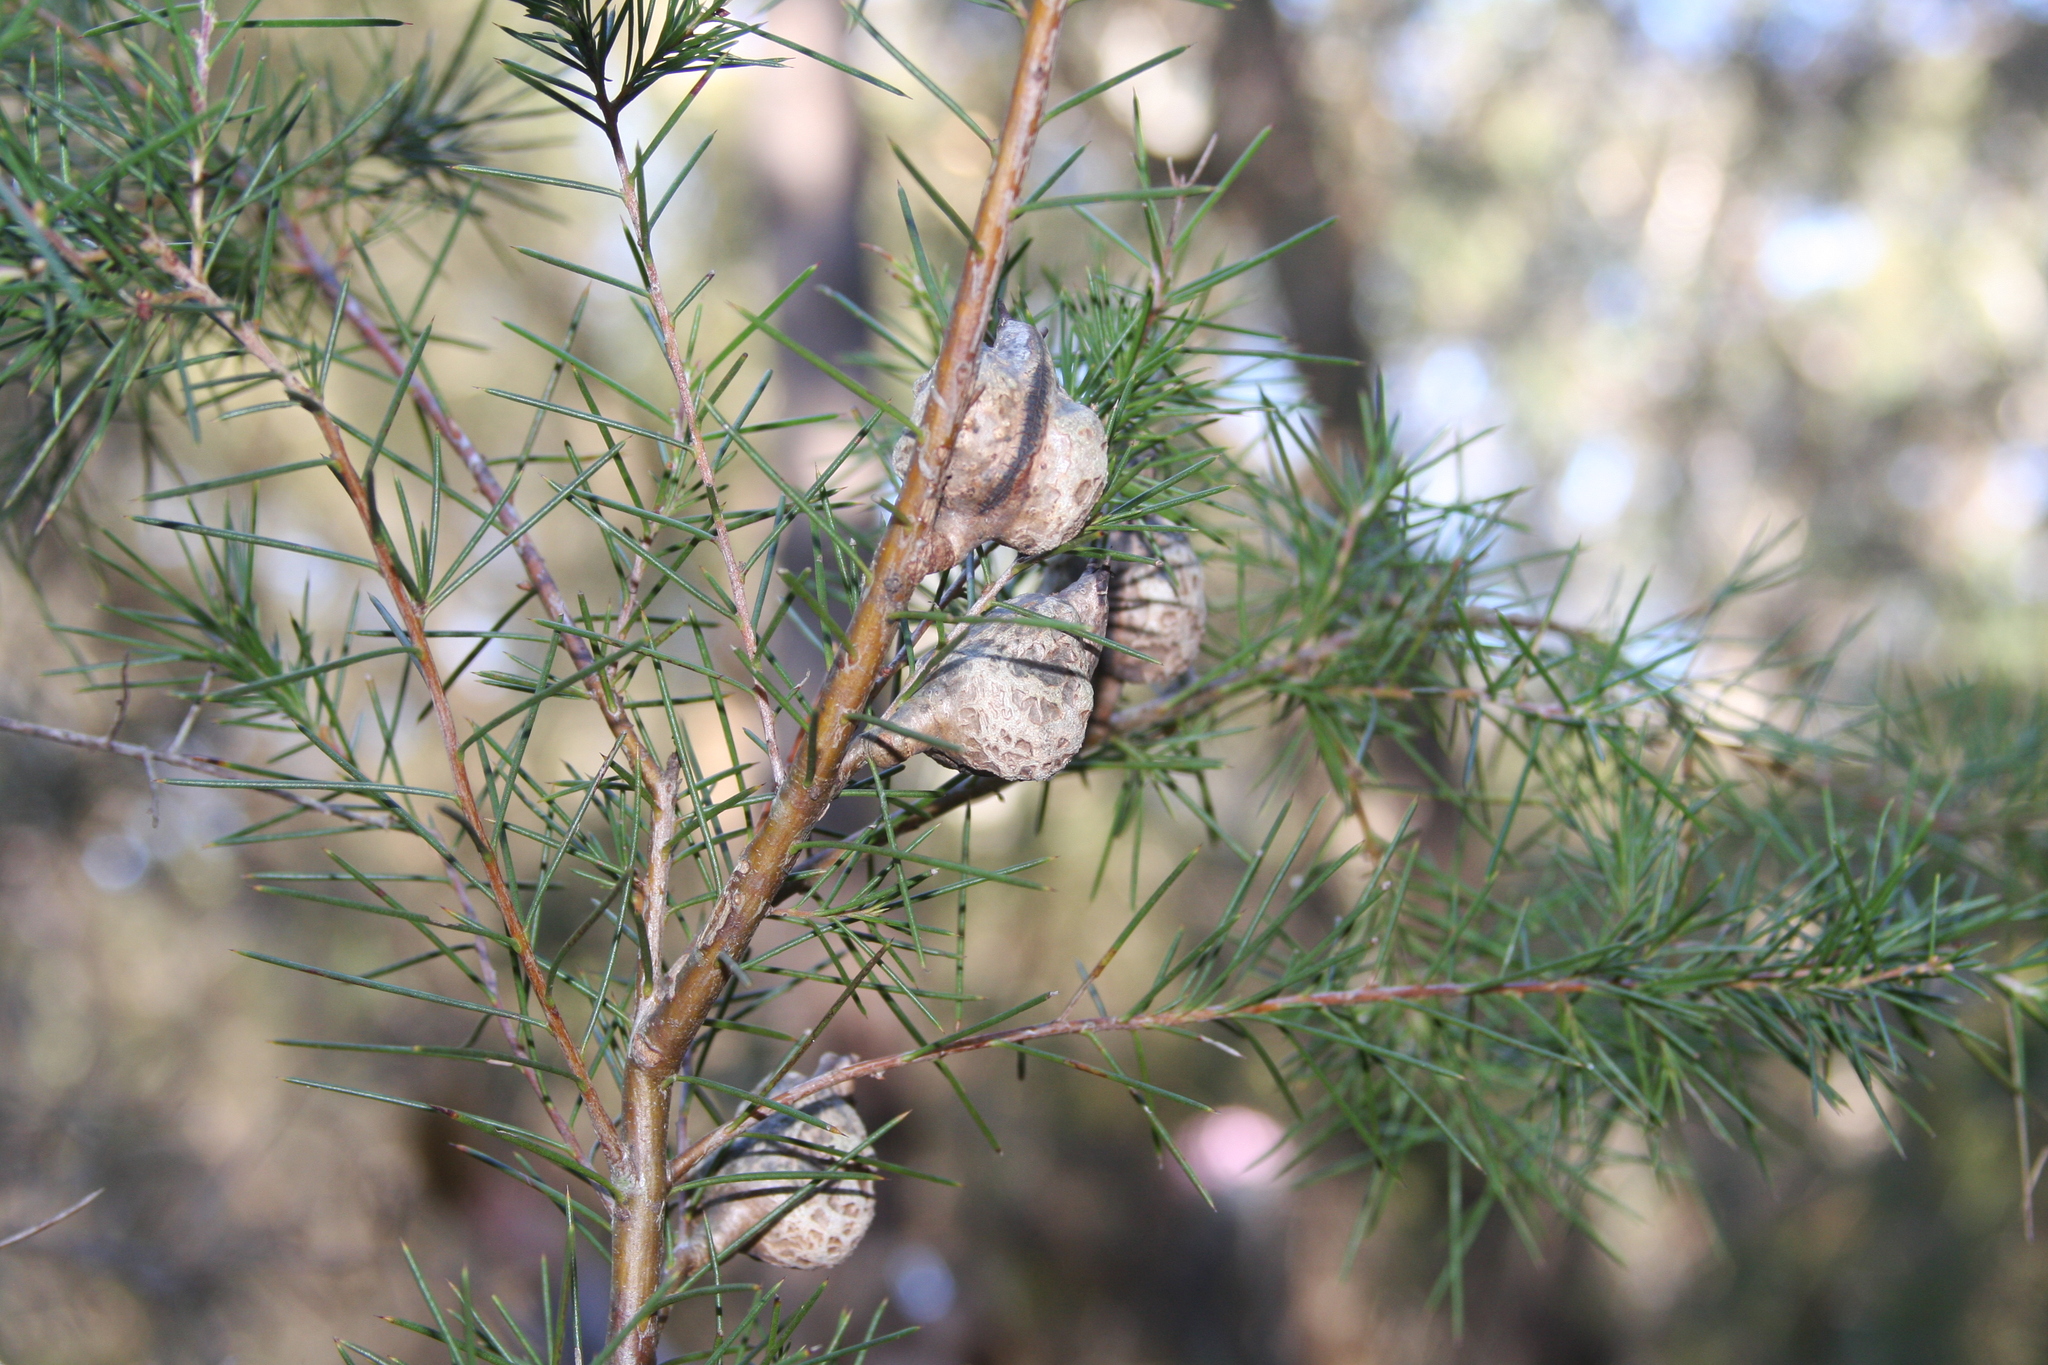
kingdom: Plantae
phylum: Tracheophyta
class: Magnoliopsida
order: Proteales
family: Proteaceae
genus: Hakea
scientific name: Hakea sericea
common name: Needle bush
